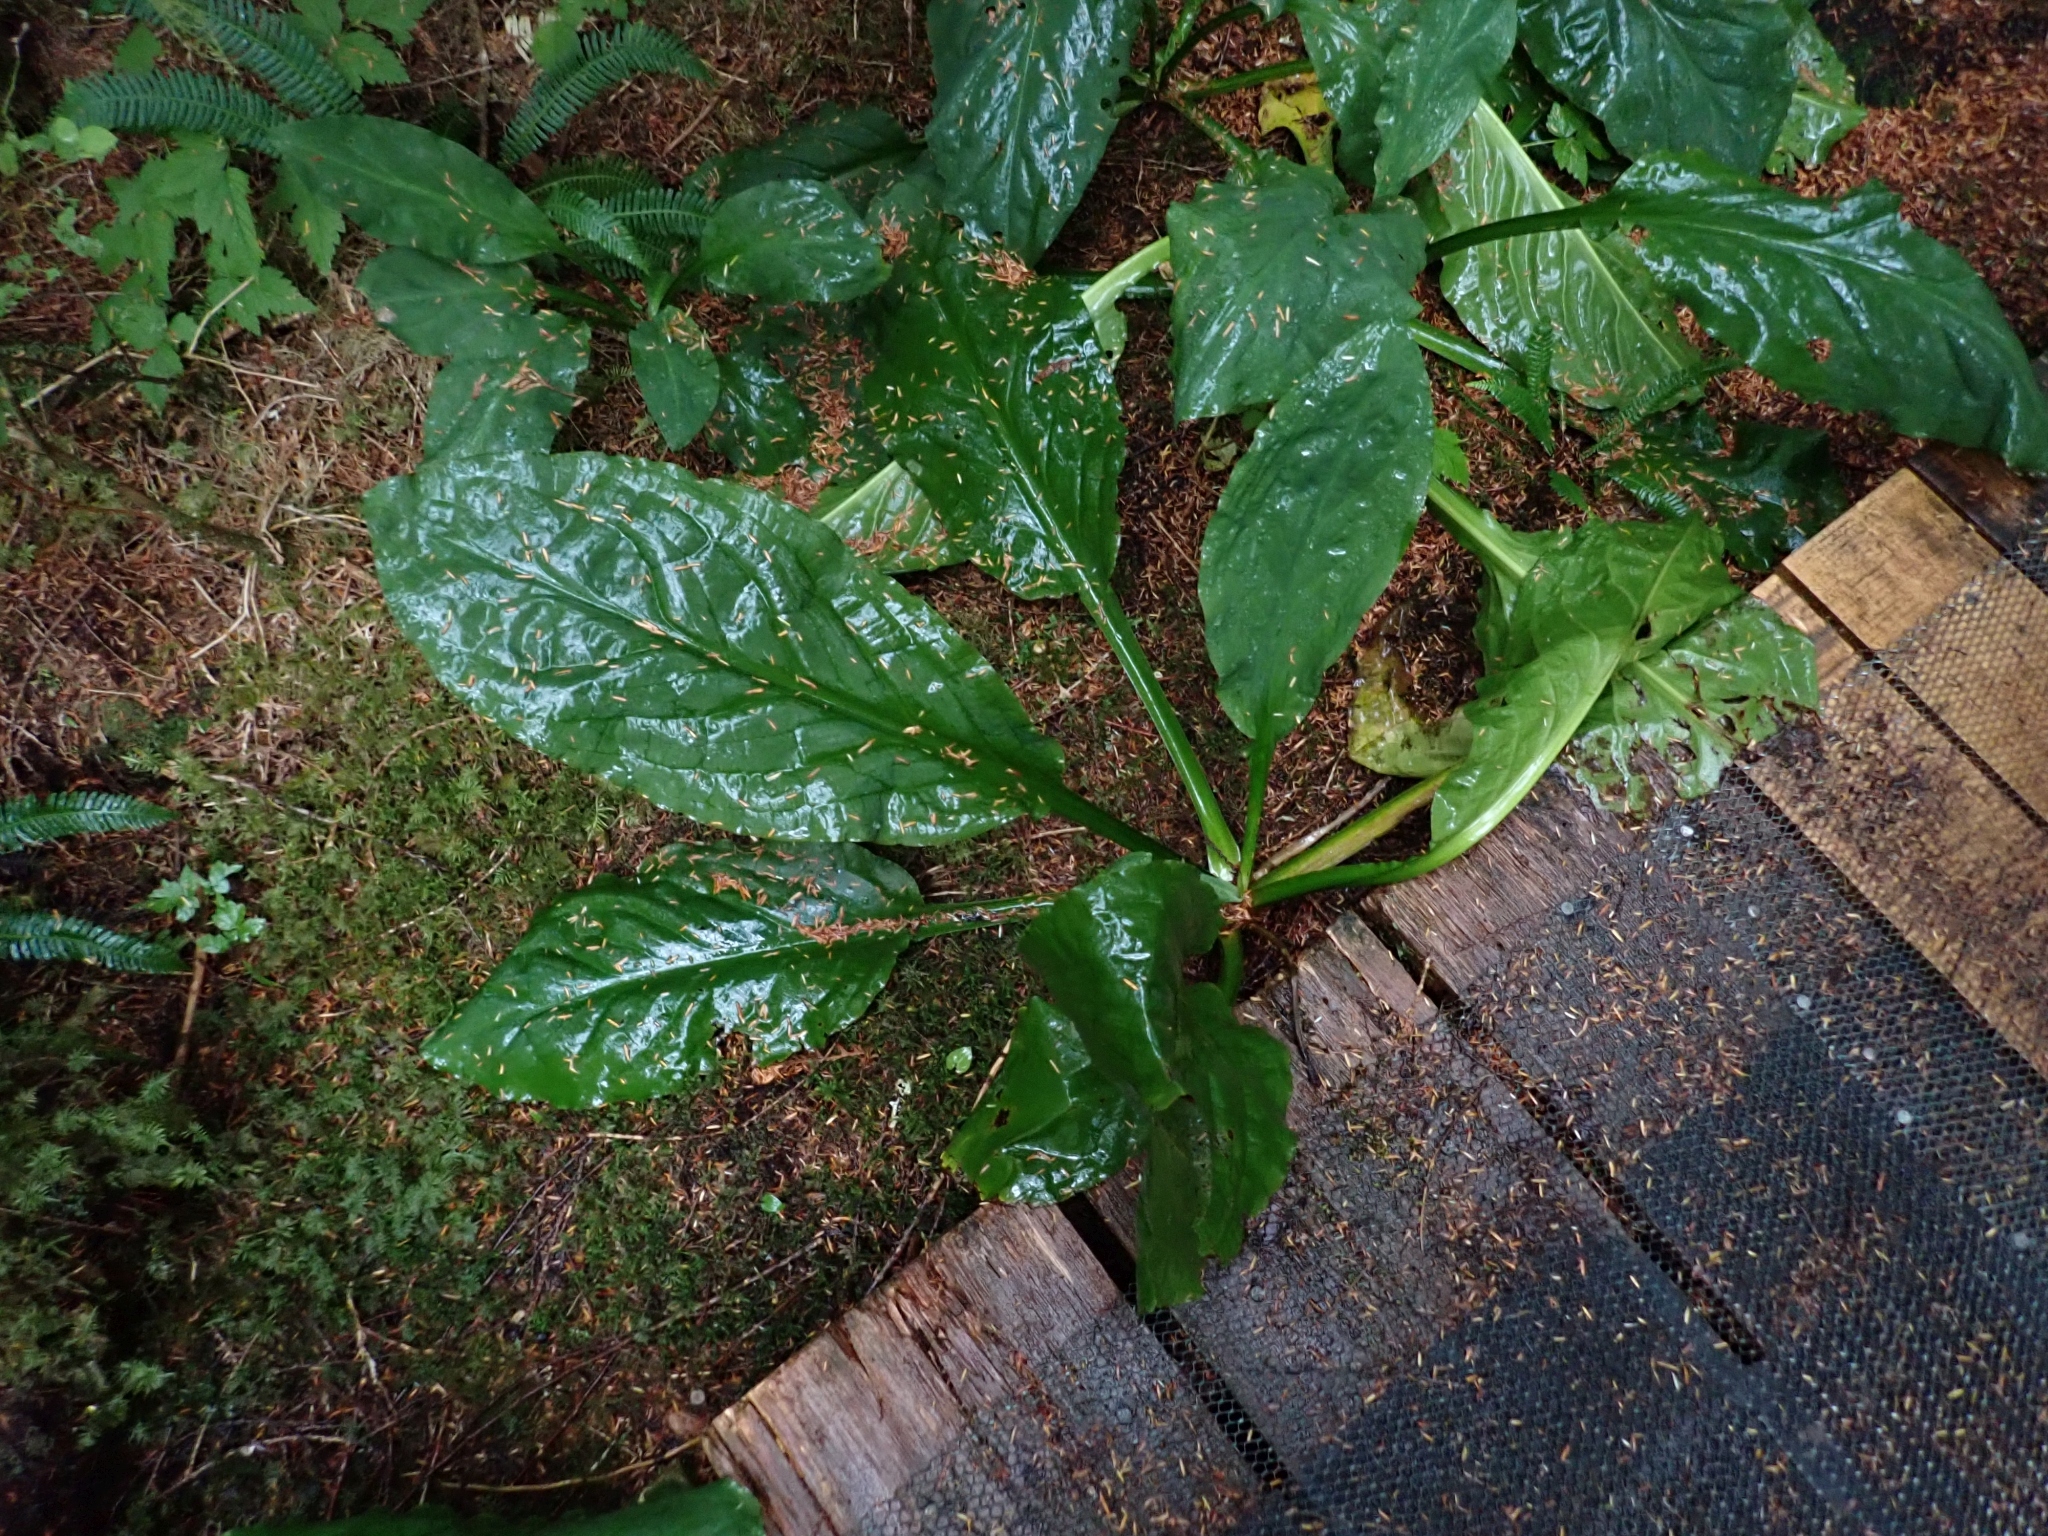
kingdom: Plantae
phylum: Tracheophyta
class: Liliopsida
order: Alismatales
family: Araceae
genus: Lysichiton
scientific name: Lysichiton americanus
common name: American skunk cabbage
